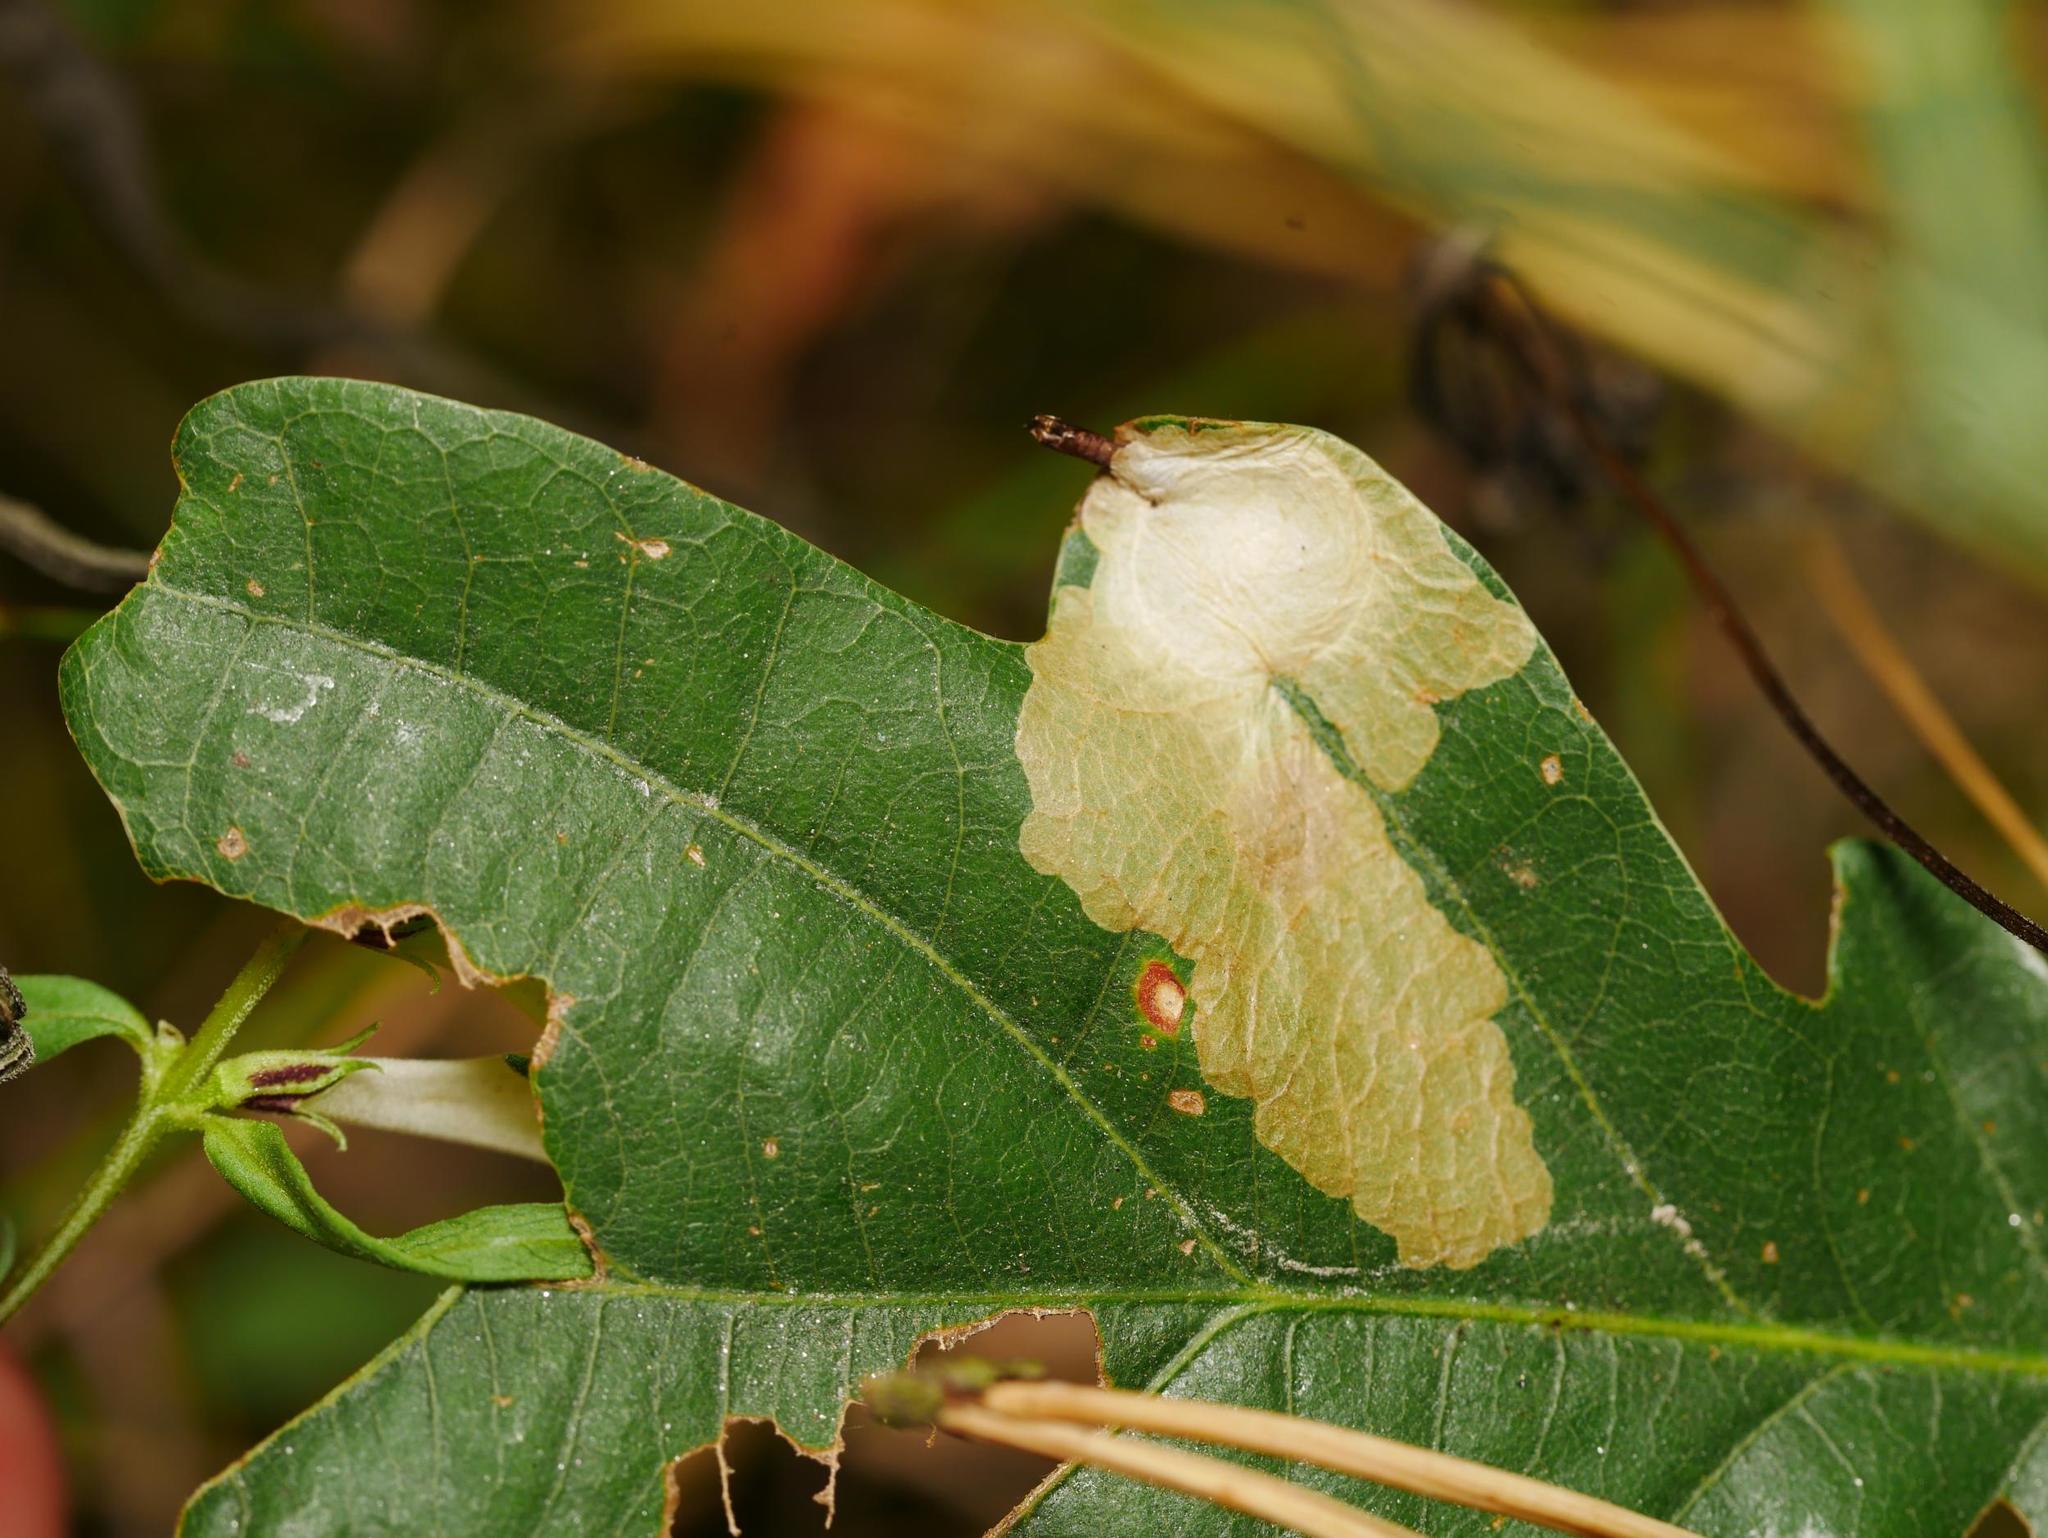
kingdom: Animalia
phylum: Arthropoda
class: Insecta
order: Lepidoptera
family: Tischeriidae
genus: Tischeria
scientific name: Tischeria ekebladella
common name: Oak carl
